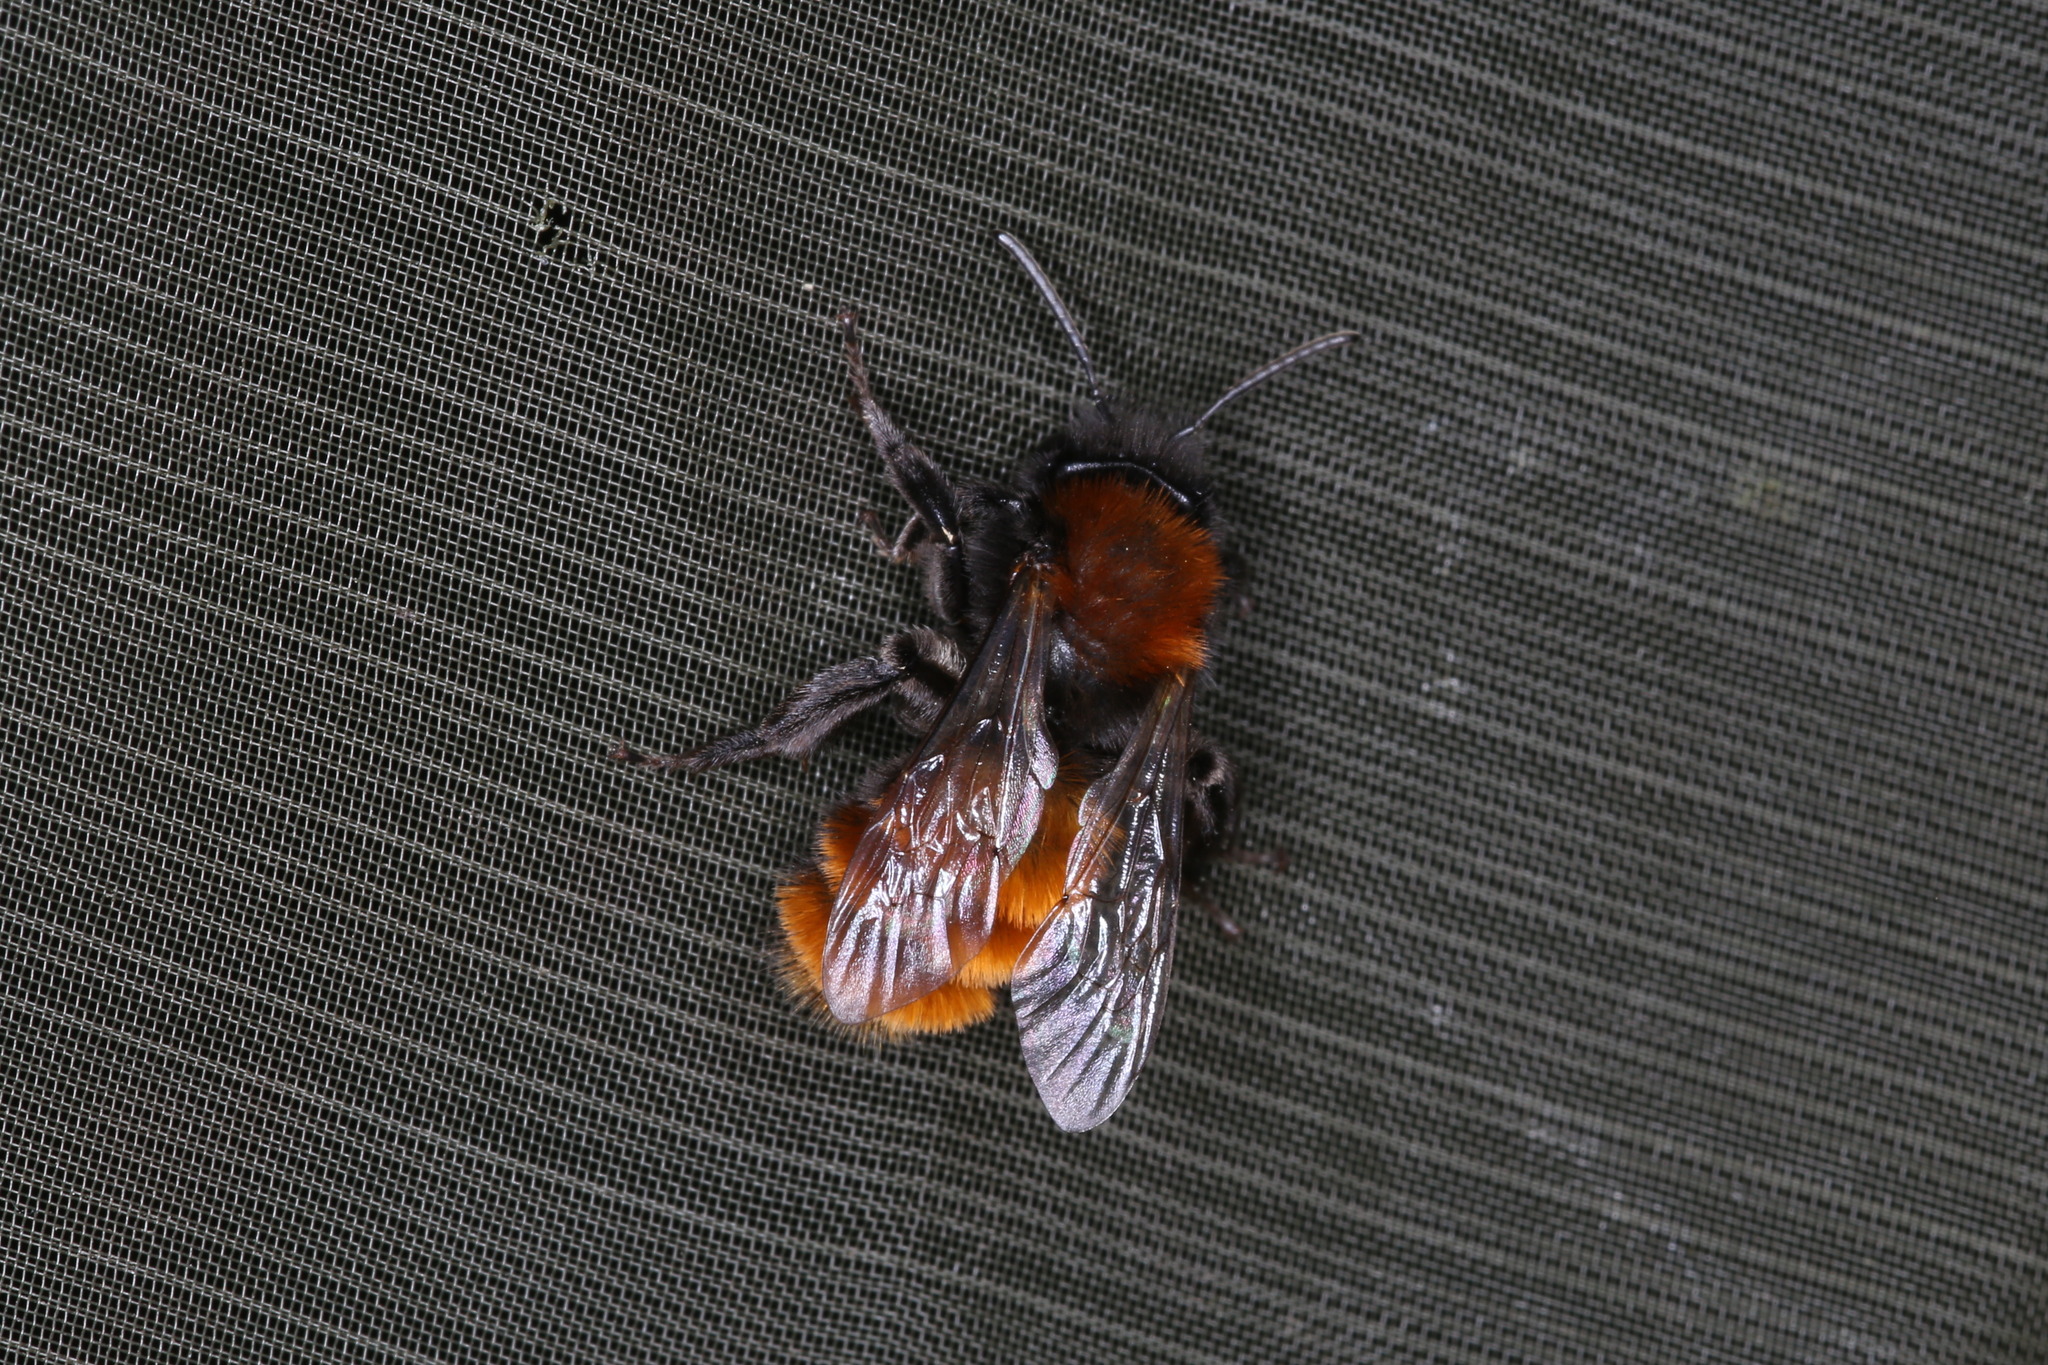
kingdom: Animalia
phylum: Arthropoda
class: Insecta
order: Hymenoptera
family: Andrenidae
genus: Andrena
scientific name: Andrena fulva
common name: Tawny mining bee
